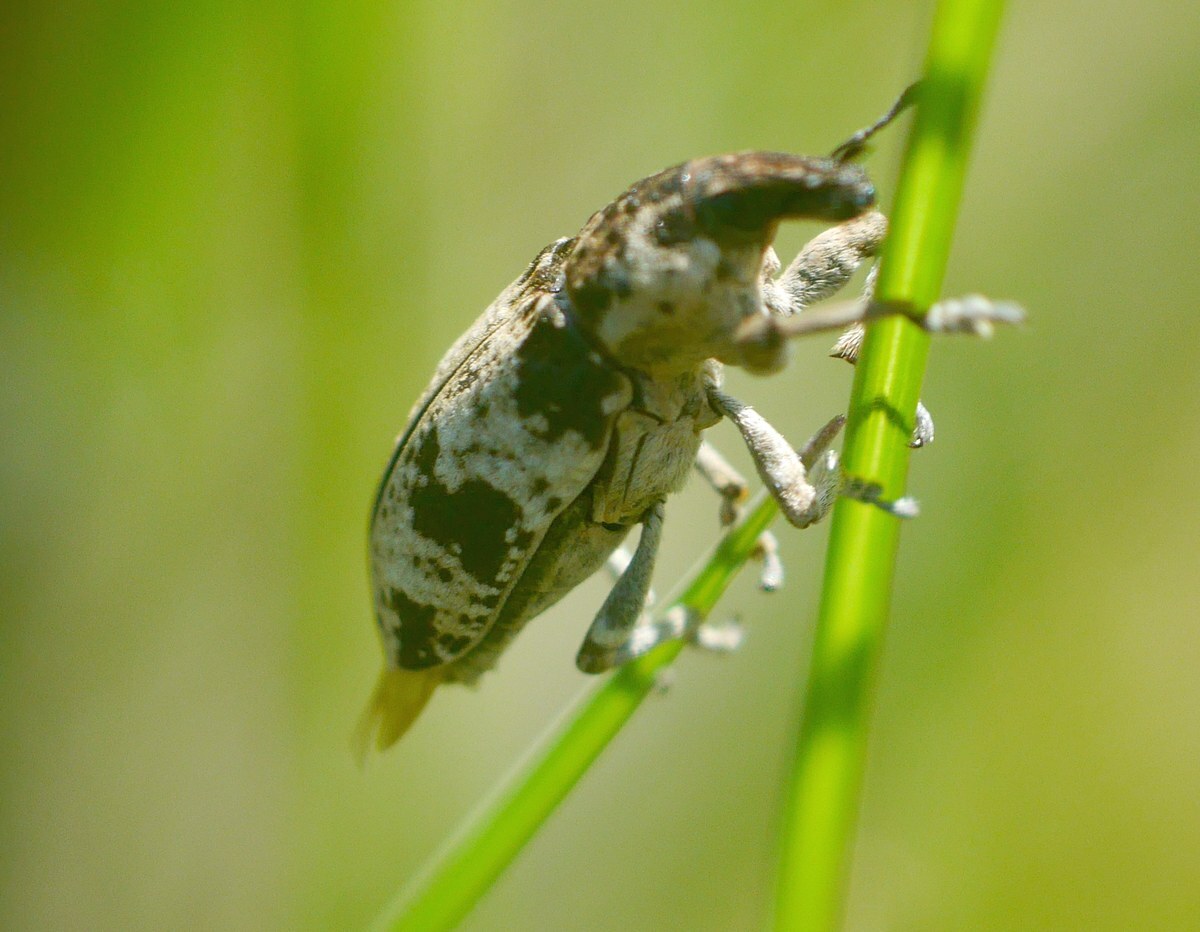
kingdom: Animalia
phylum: Arthropoda
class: Insecta
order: Coleoptera
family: Curculionidae
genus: Bothynoderes
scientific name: Bothynoderes affinis
